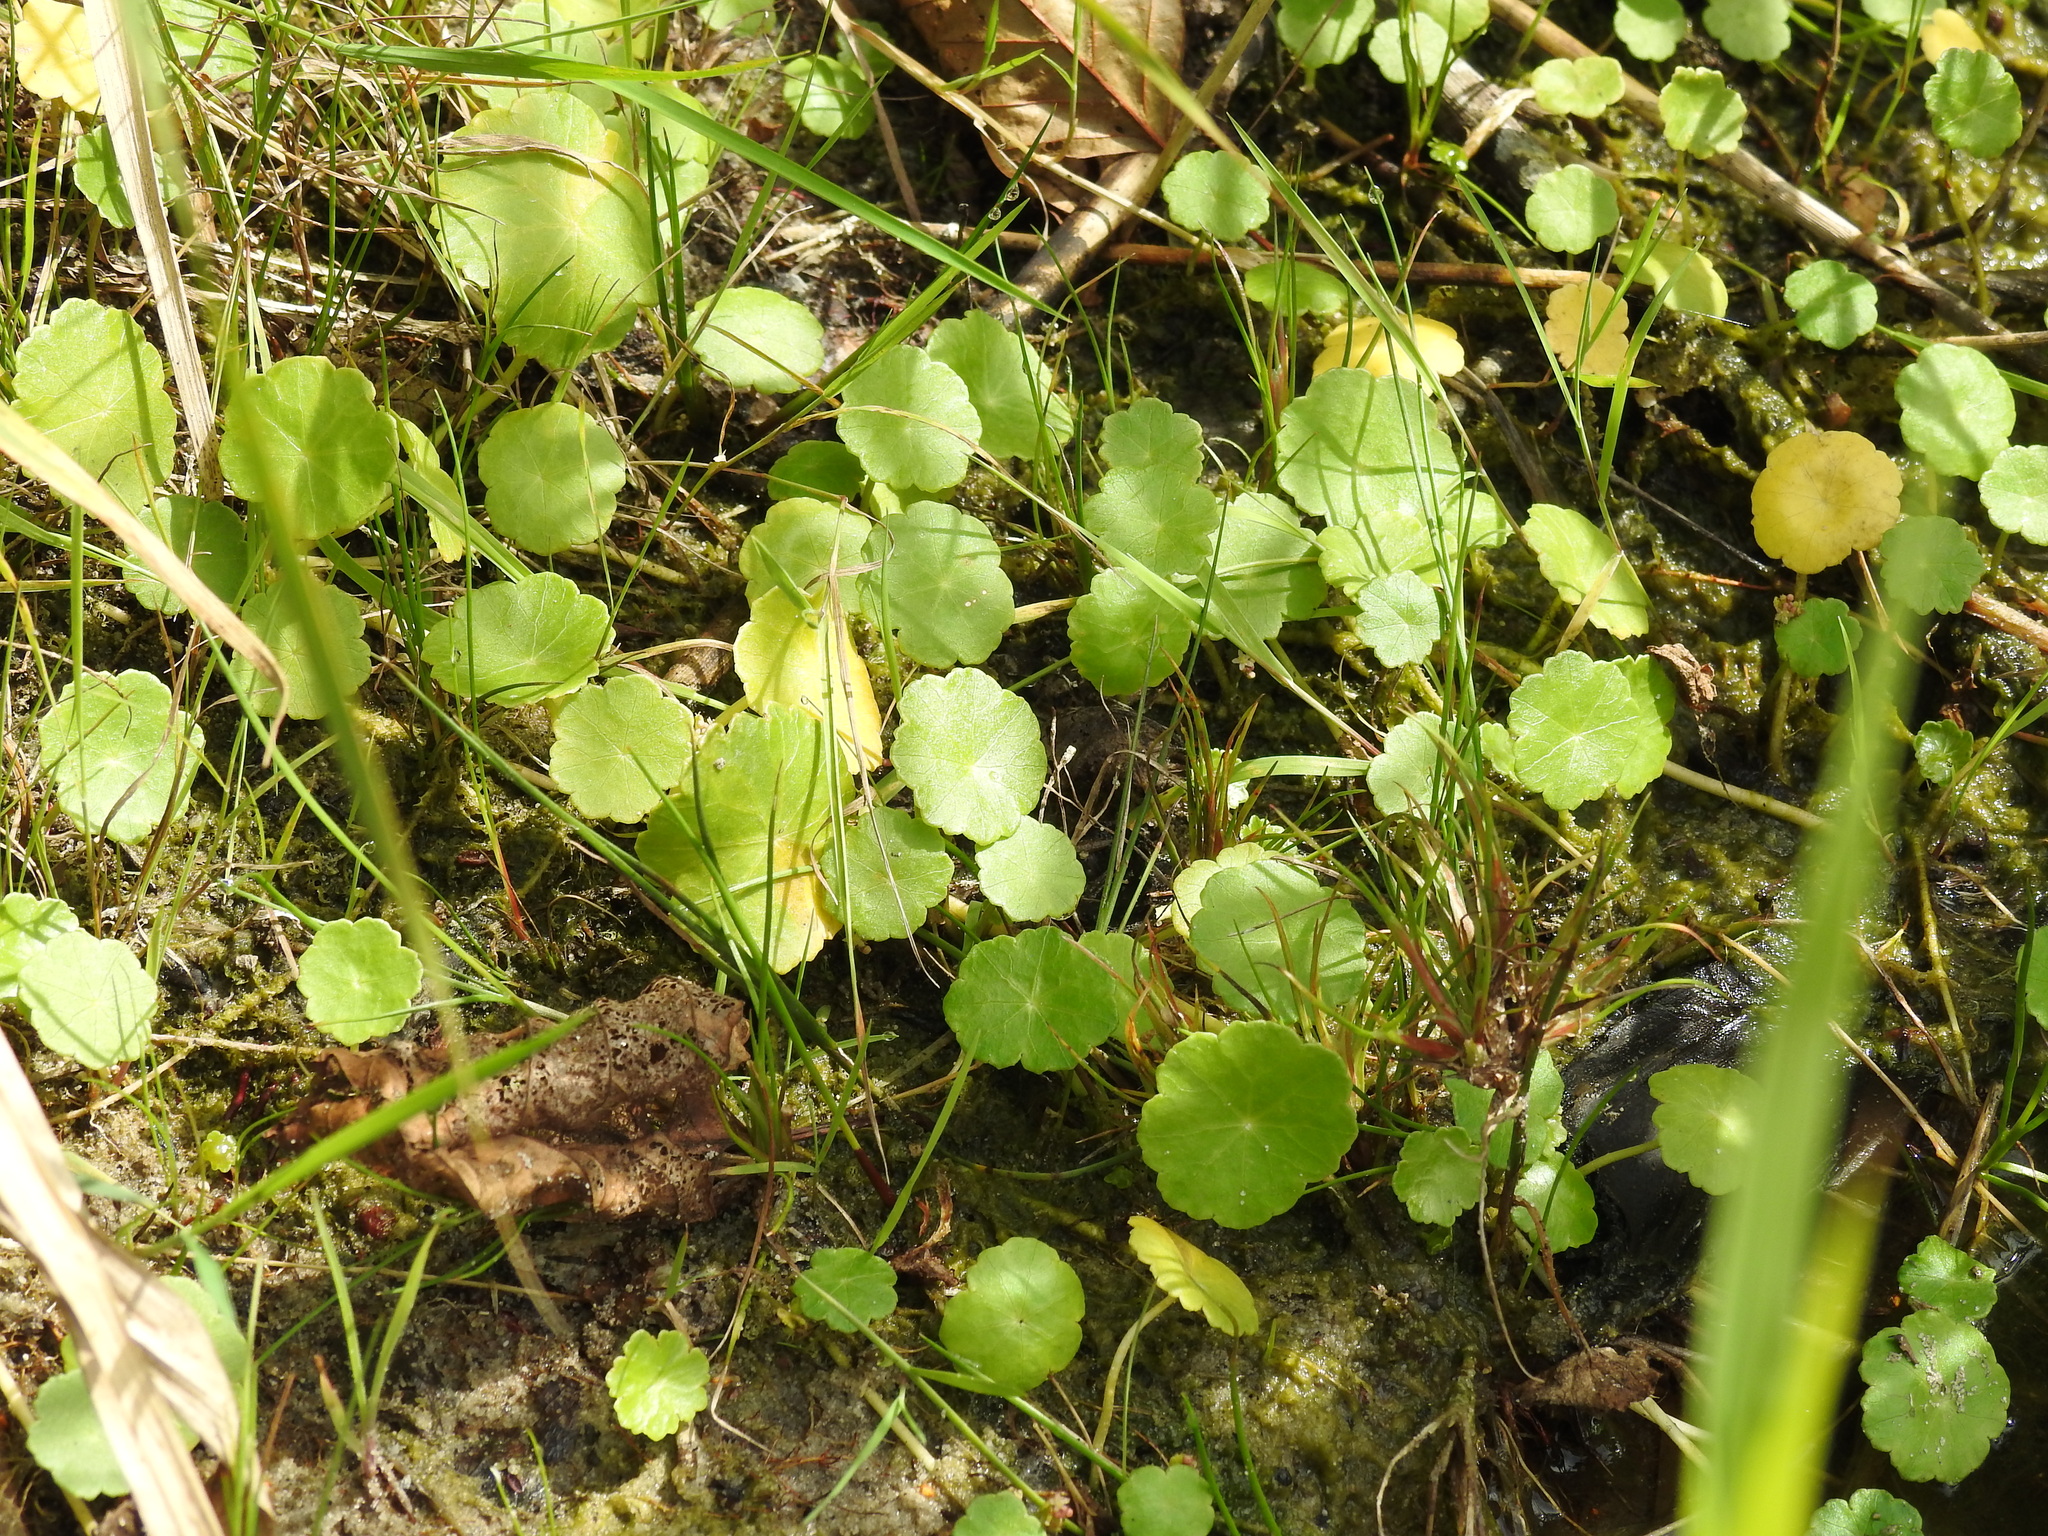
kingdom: Plantae
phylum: Tracheophyta
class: Magnoliopsida
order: Apiales
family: Araliaceae
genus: Hydrocotyle
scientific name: Hydrocotyle vulgaris
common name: Marsh pennywort
